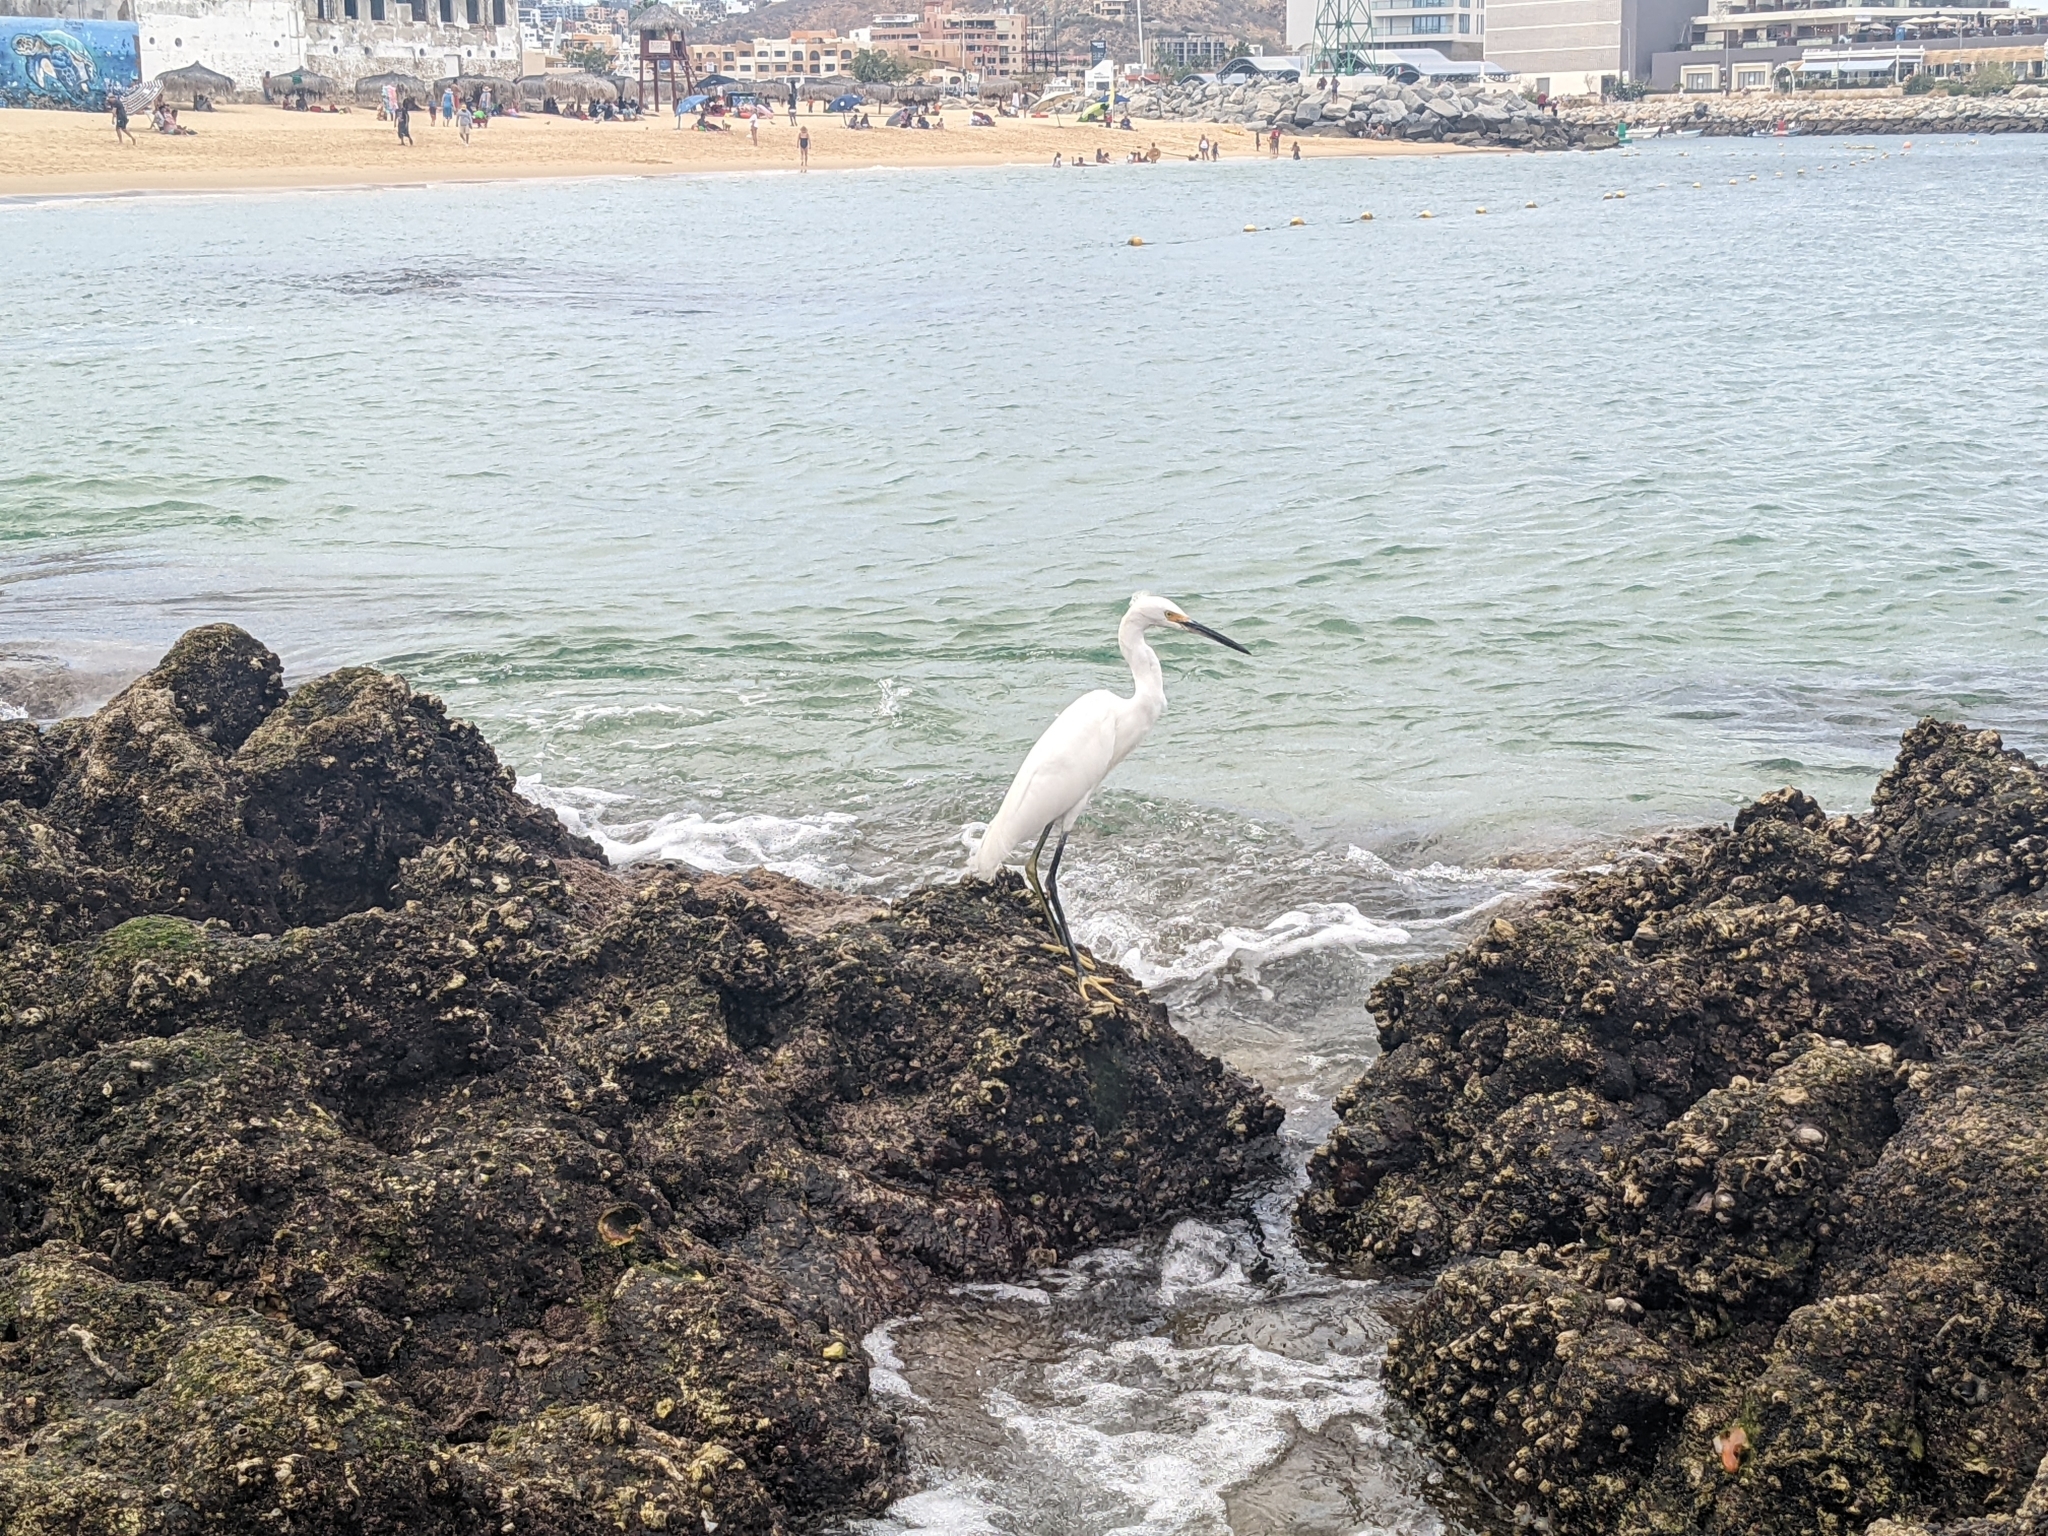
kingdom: Animalia
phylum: Chordata
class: Aves
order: Pelecaniformes
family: Ardeidae
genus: Egretta
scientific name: Egretta thula
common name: Snowy egret
